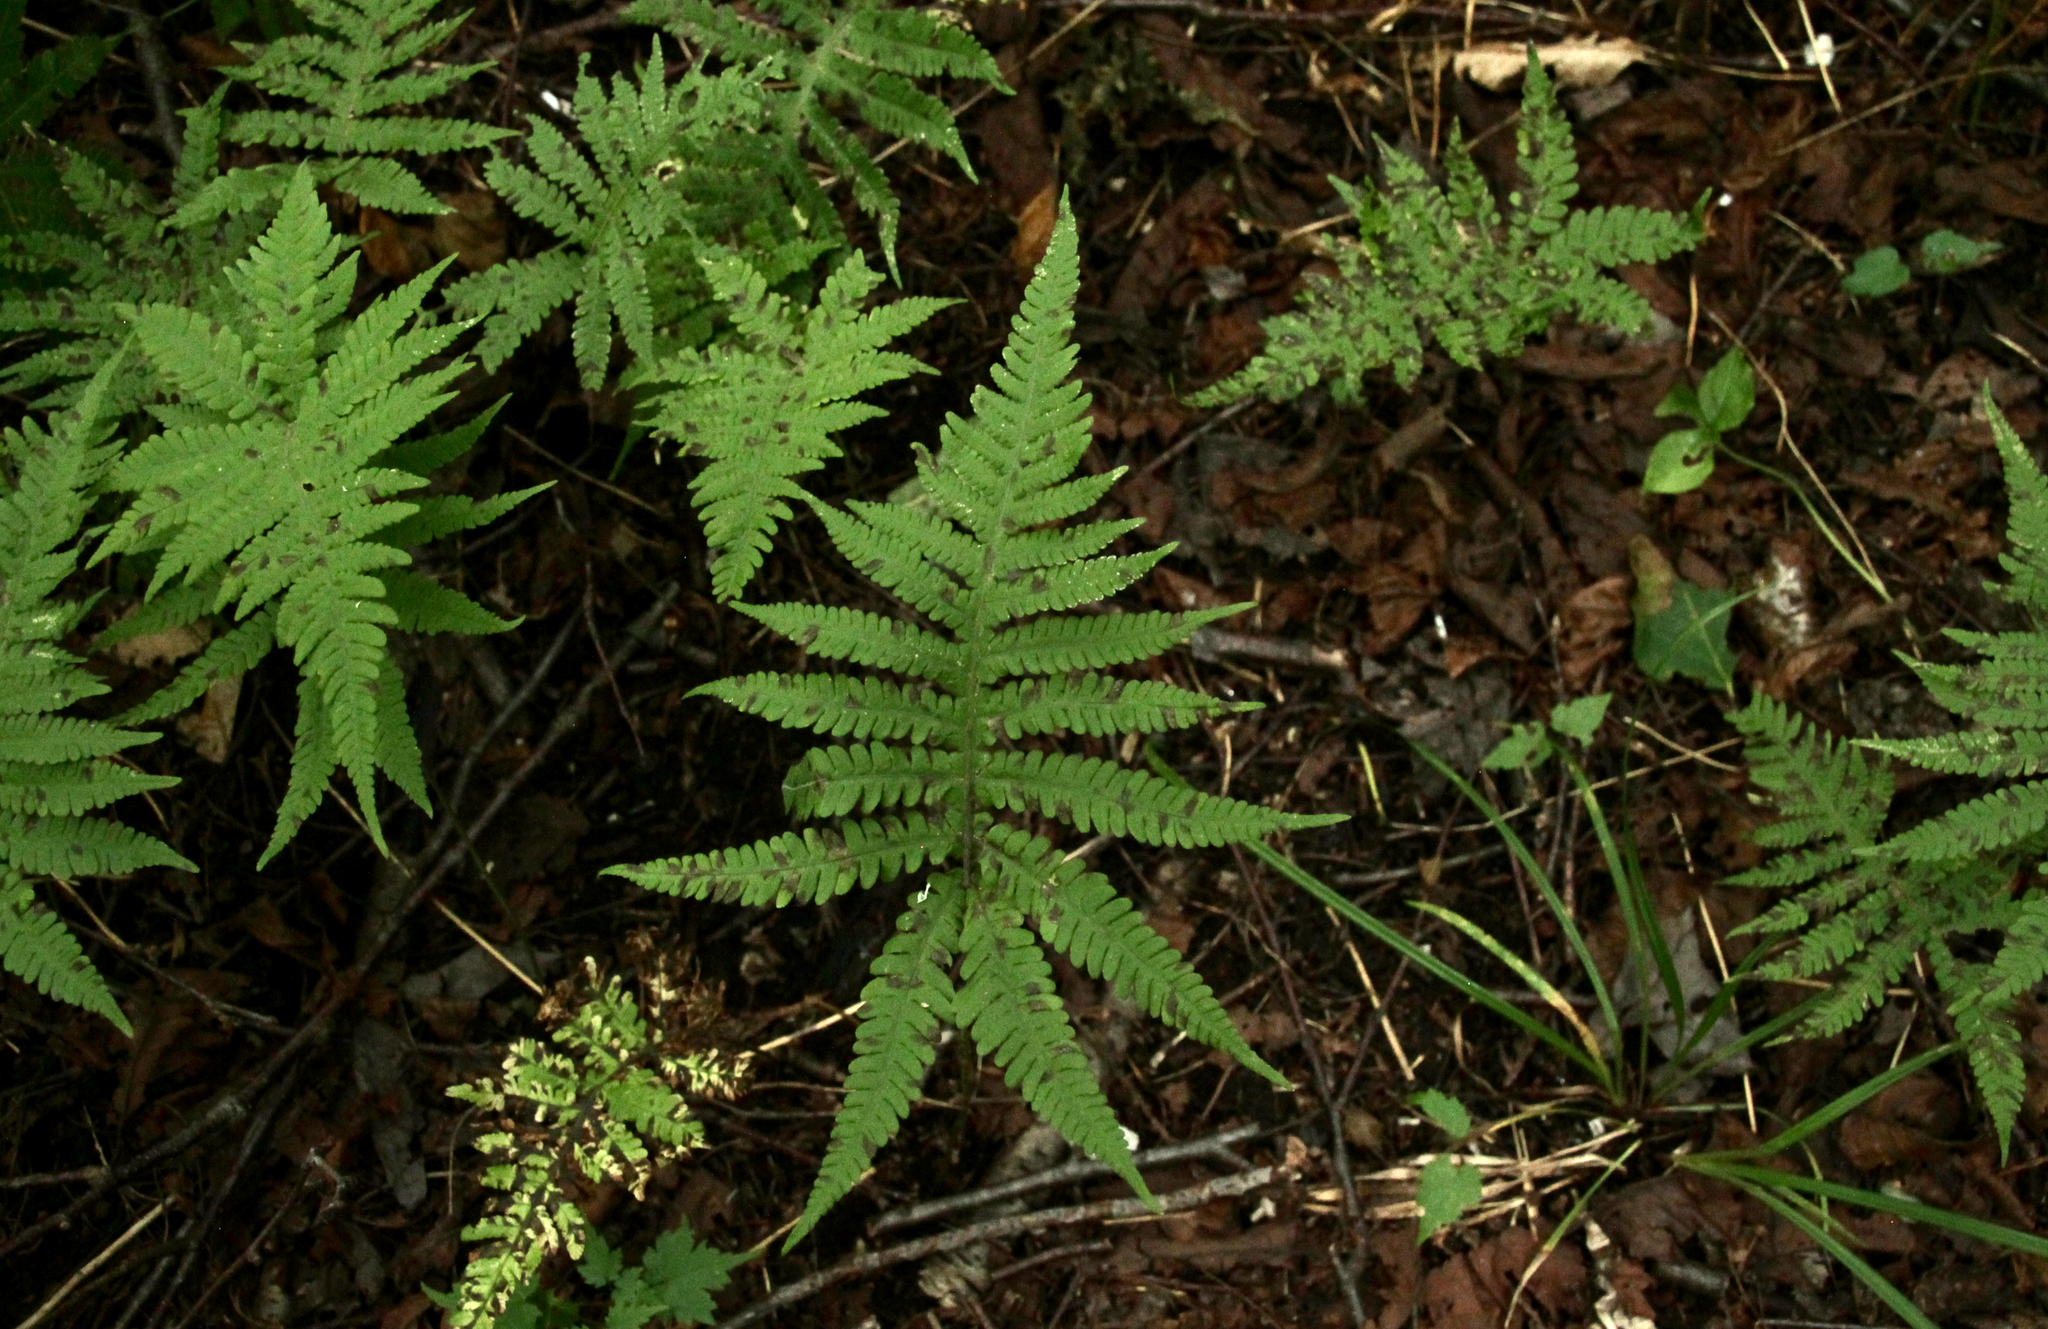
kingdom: Plantae
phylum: Tracheophyta
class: Polypodiopsida
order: Polypodiales
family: Thelypteridaceae
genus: Phegopteris
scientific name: Phegopteris connectilis
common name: Beech fern
